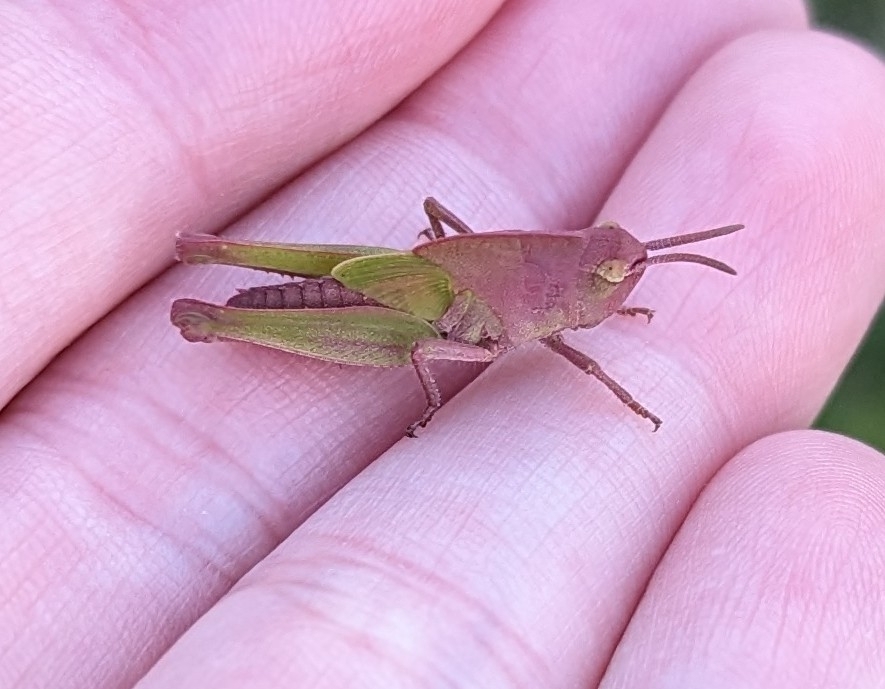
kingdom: Animalia
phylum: Arthropoda
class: Insecta
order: Orthoptera
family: Acrididae
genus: Chortophaga
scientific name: Chortophaga viridifasciata
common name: Green-striped grasshopper
